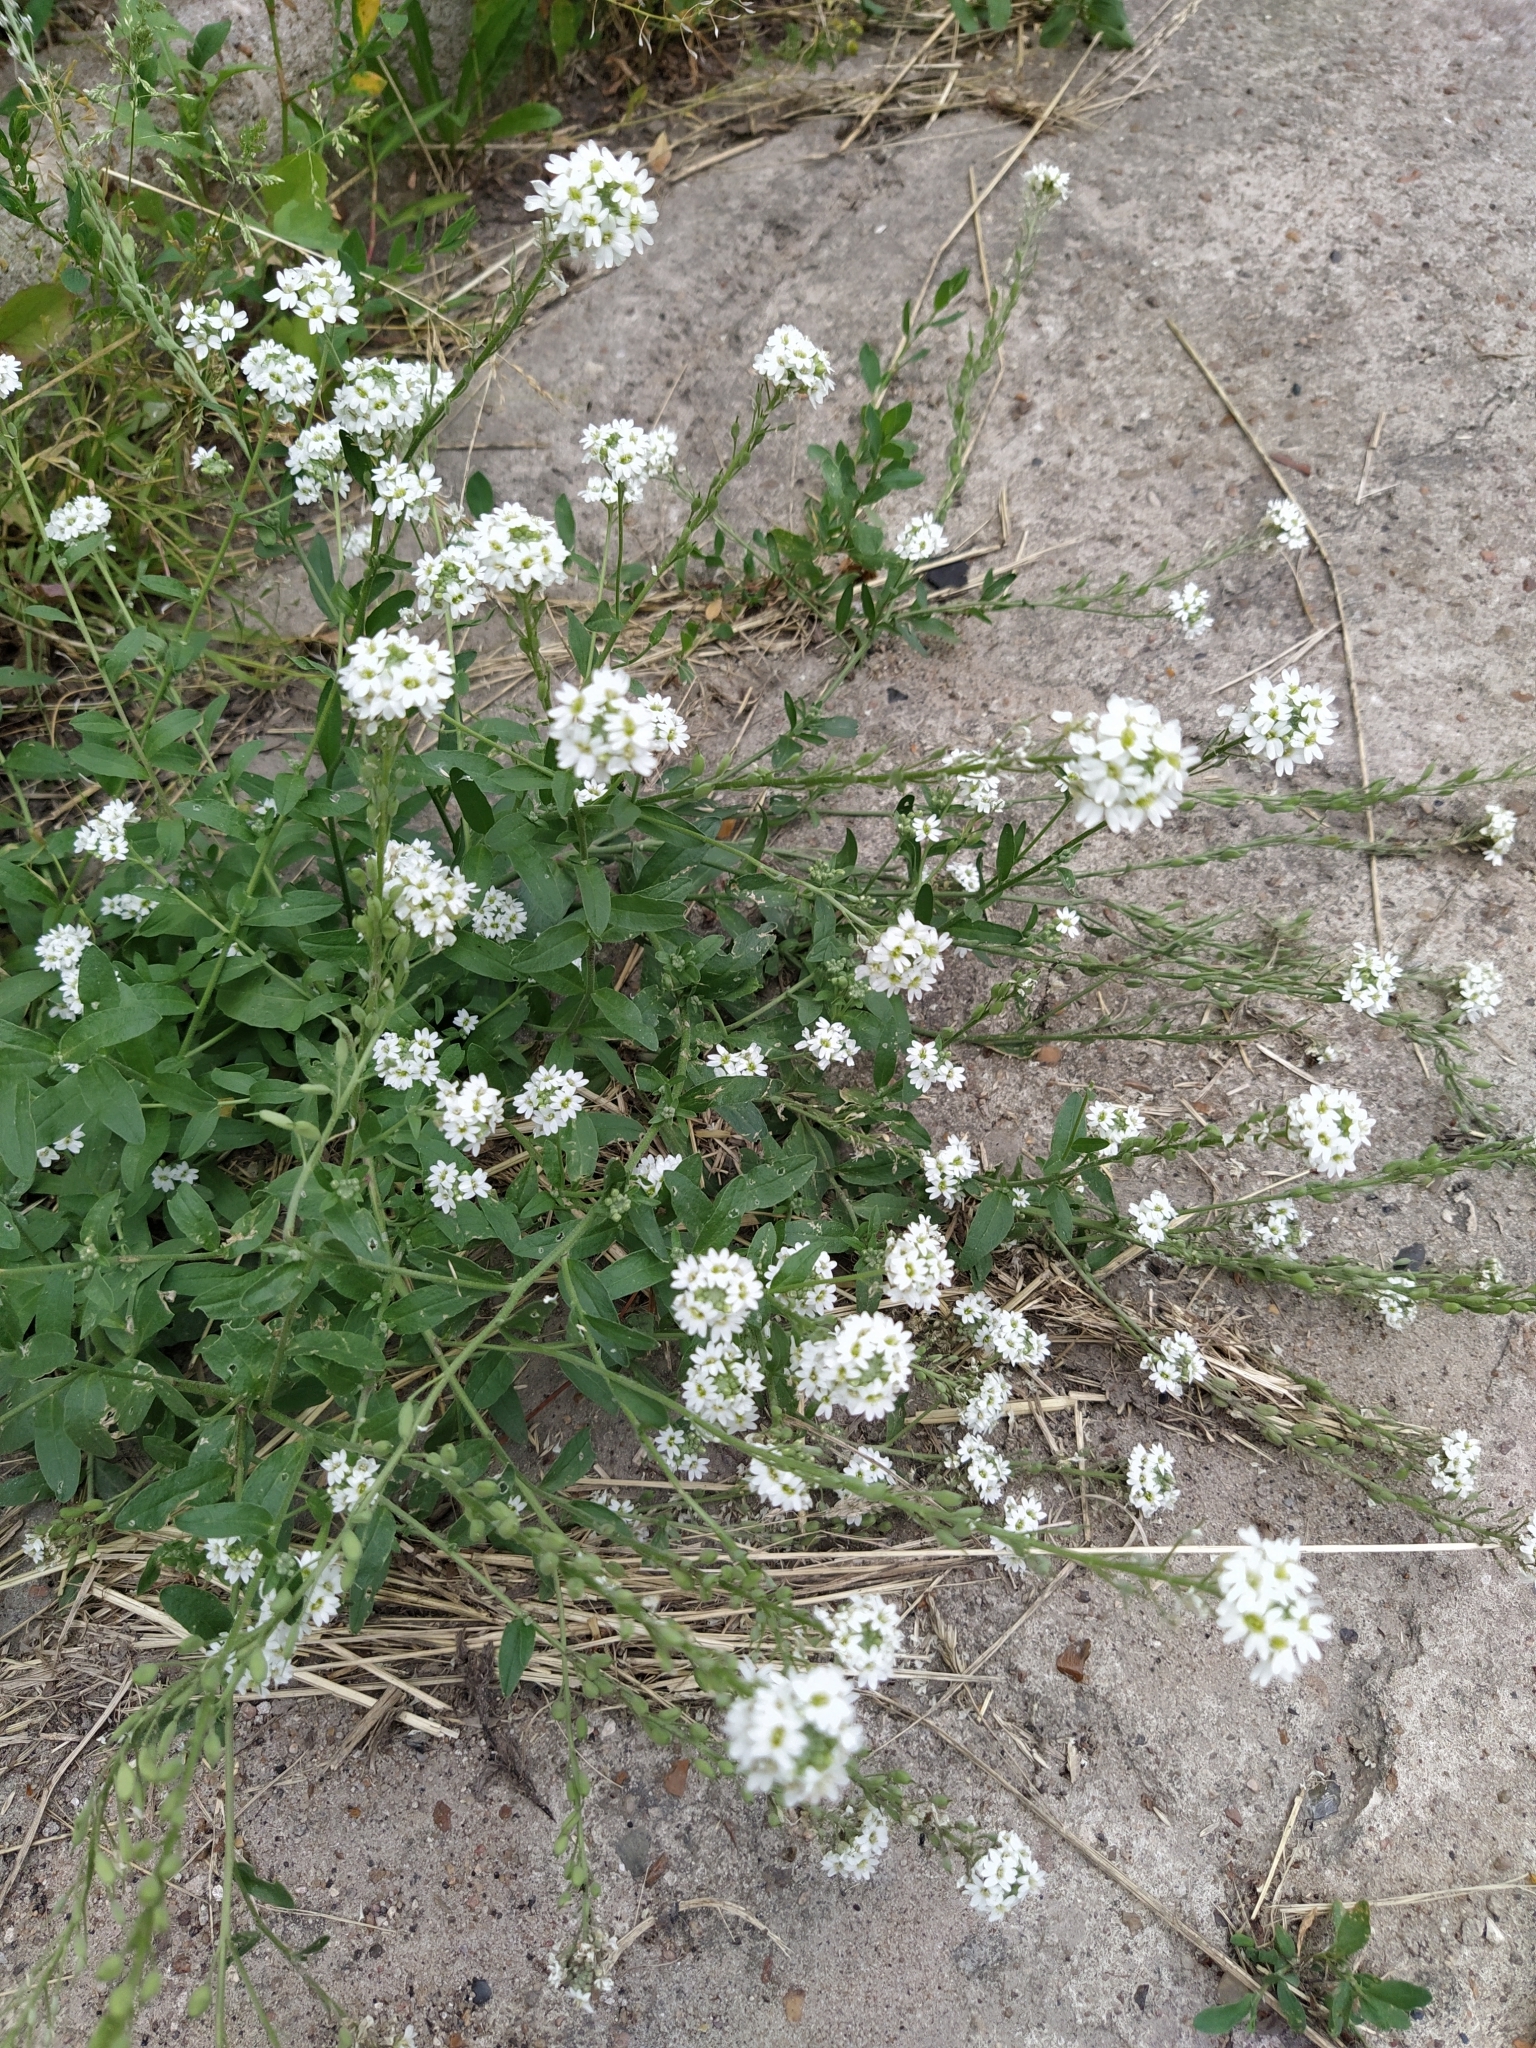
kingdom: Plantae
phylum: Tracheophyta
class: Magnoliopsida
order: Brassicales
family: Brassicaceae
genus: Berteroa
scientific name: Berteroa incana
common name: Hoary alison
